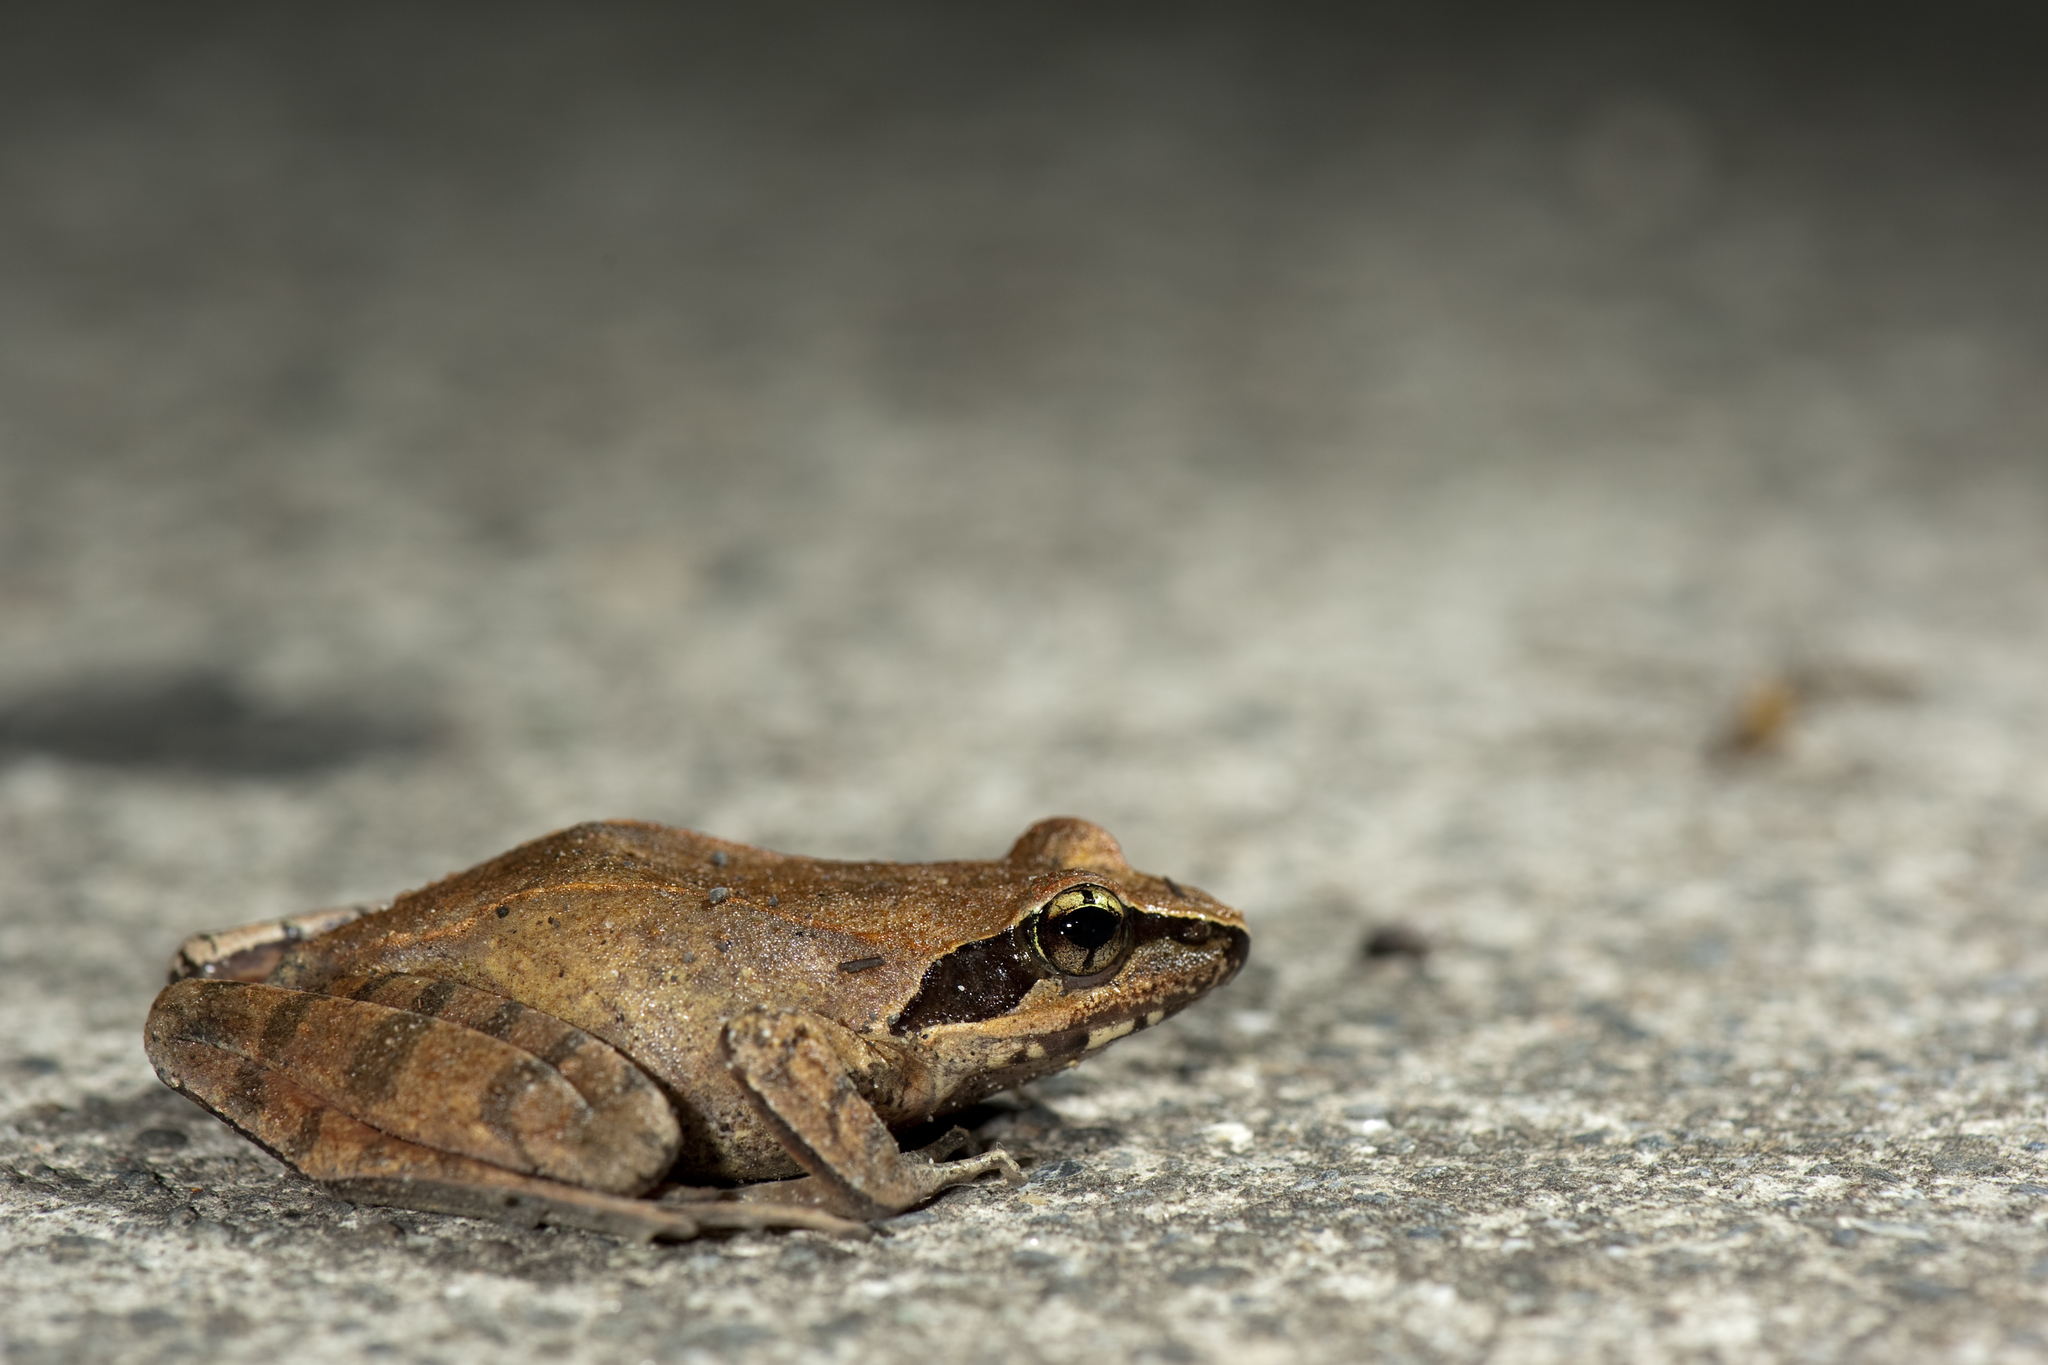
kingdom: Animalia
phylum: Chordata
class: Amphibia
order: Anura
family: Ranidae
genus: Rana
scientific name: Rana sauteri
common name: Kanshirei village frog
